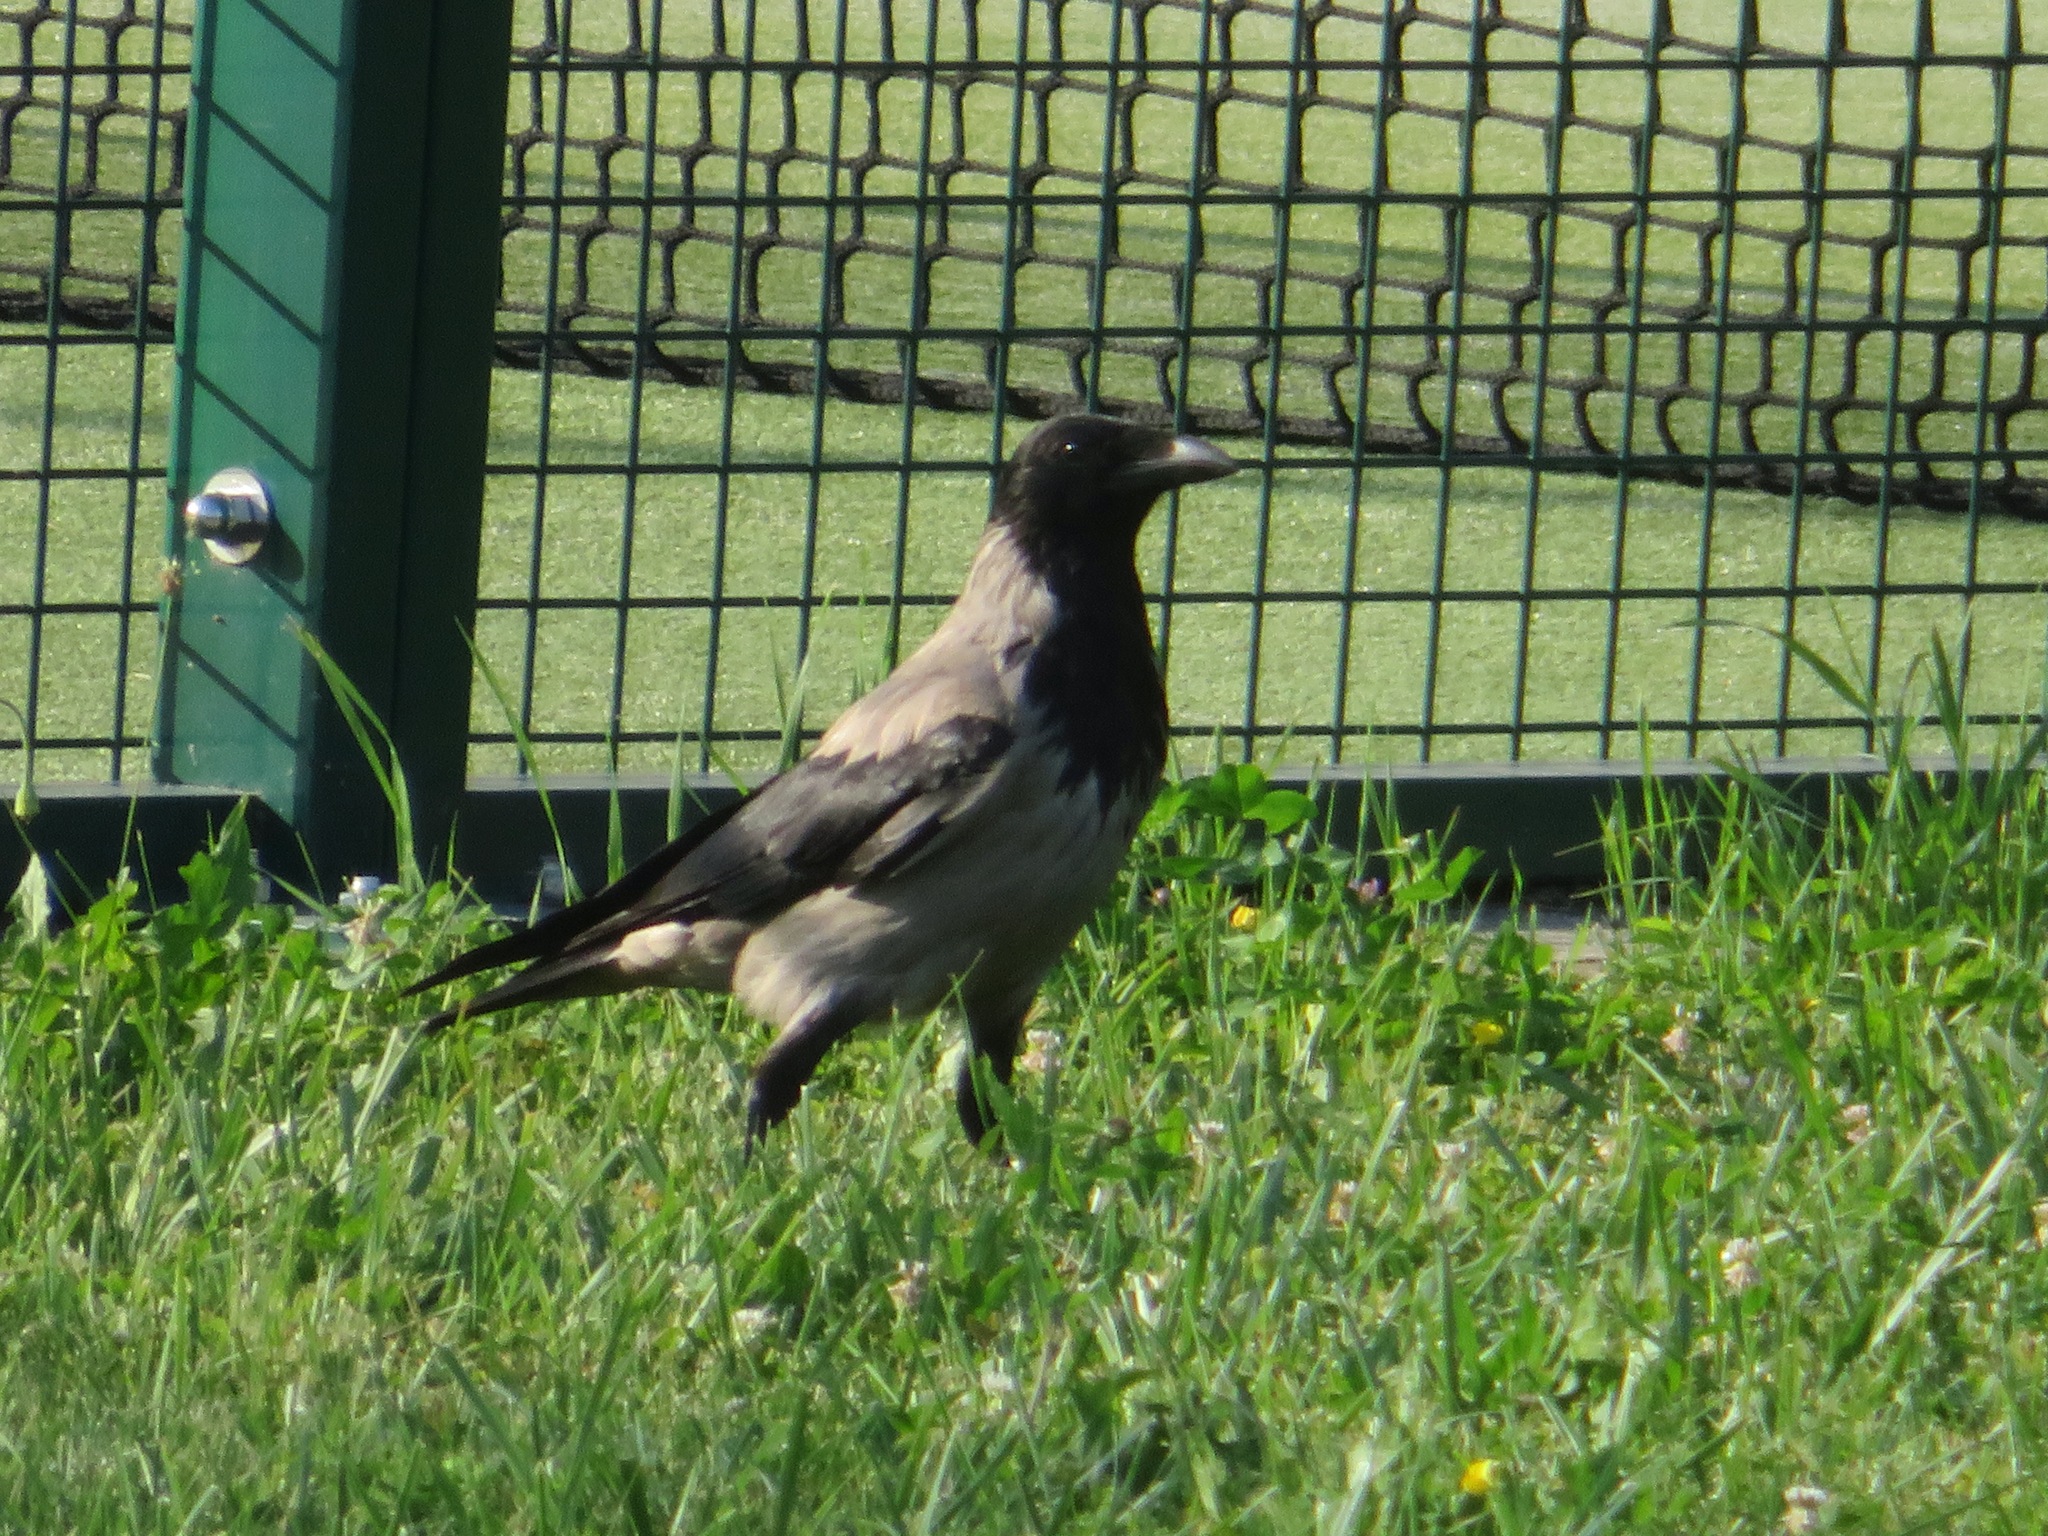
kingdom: Animalia
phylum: Chordata
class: Aves
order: Passeriformes
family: Corvidae
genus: Corvus
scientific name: Corvus cornix
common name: Hooded crow
